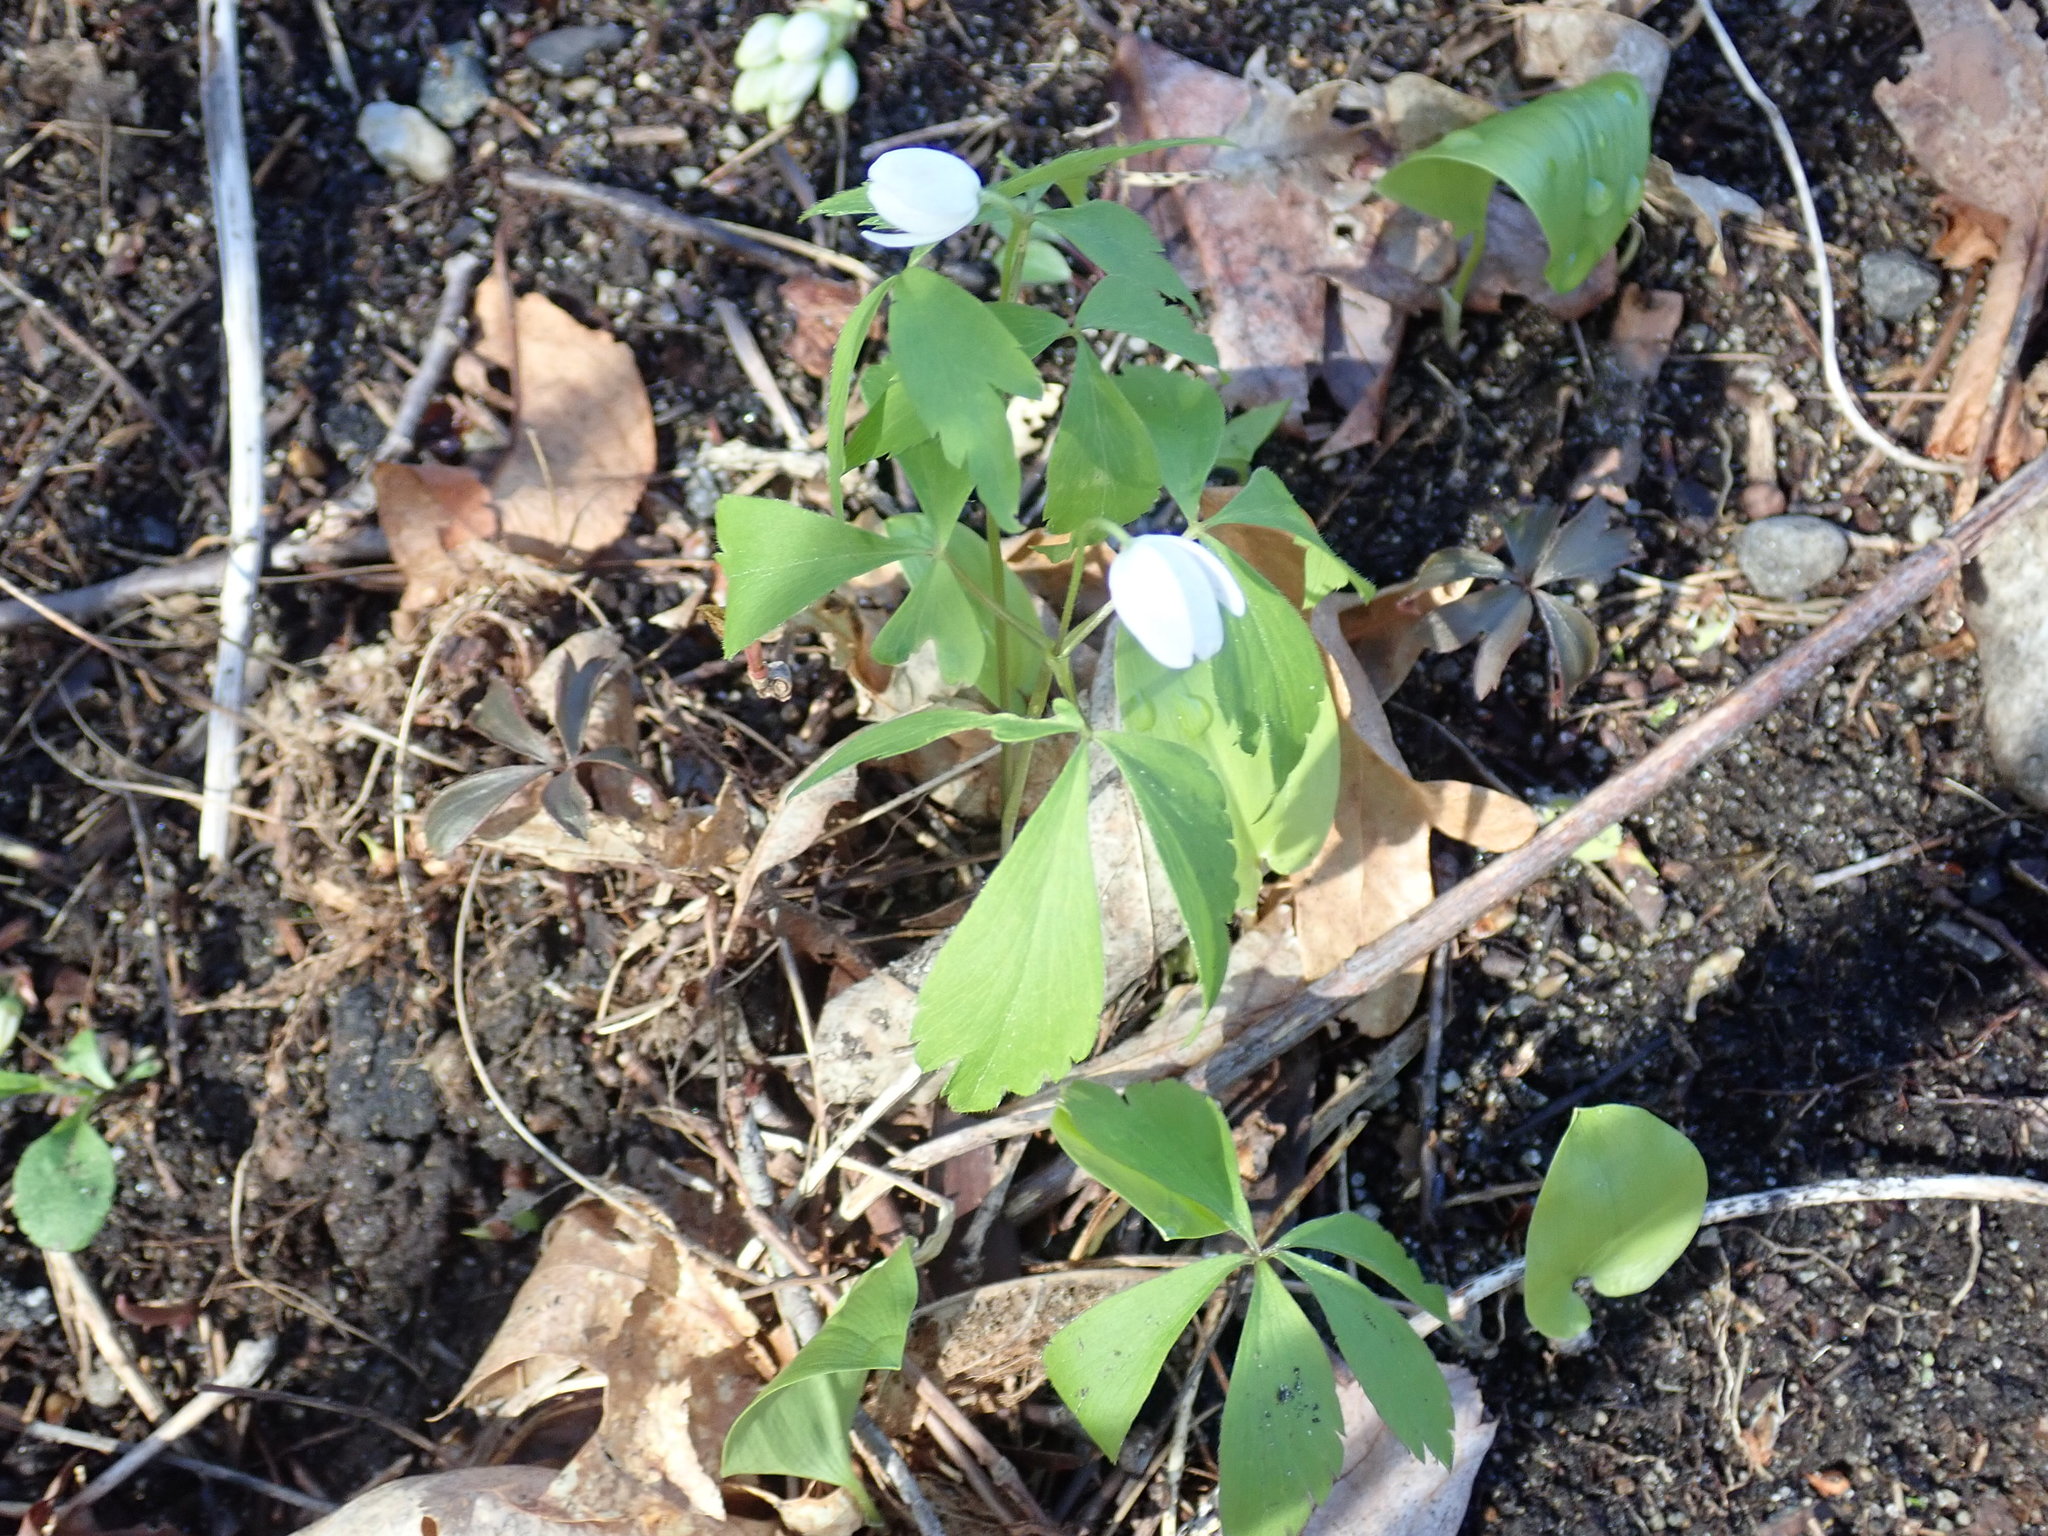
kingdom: Plantae
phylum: Tracheophyta
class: Magnoliopsida
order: Ranunculales
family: Ranunculaceae
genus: Anemone
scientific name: Anemone quinquefolia
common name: Wood anemone
